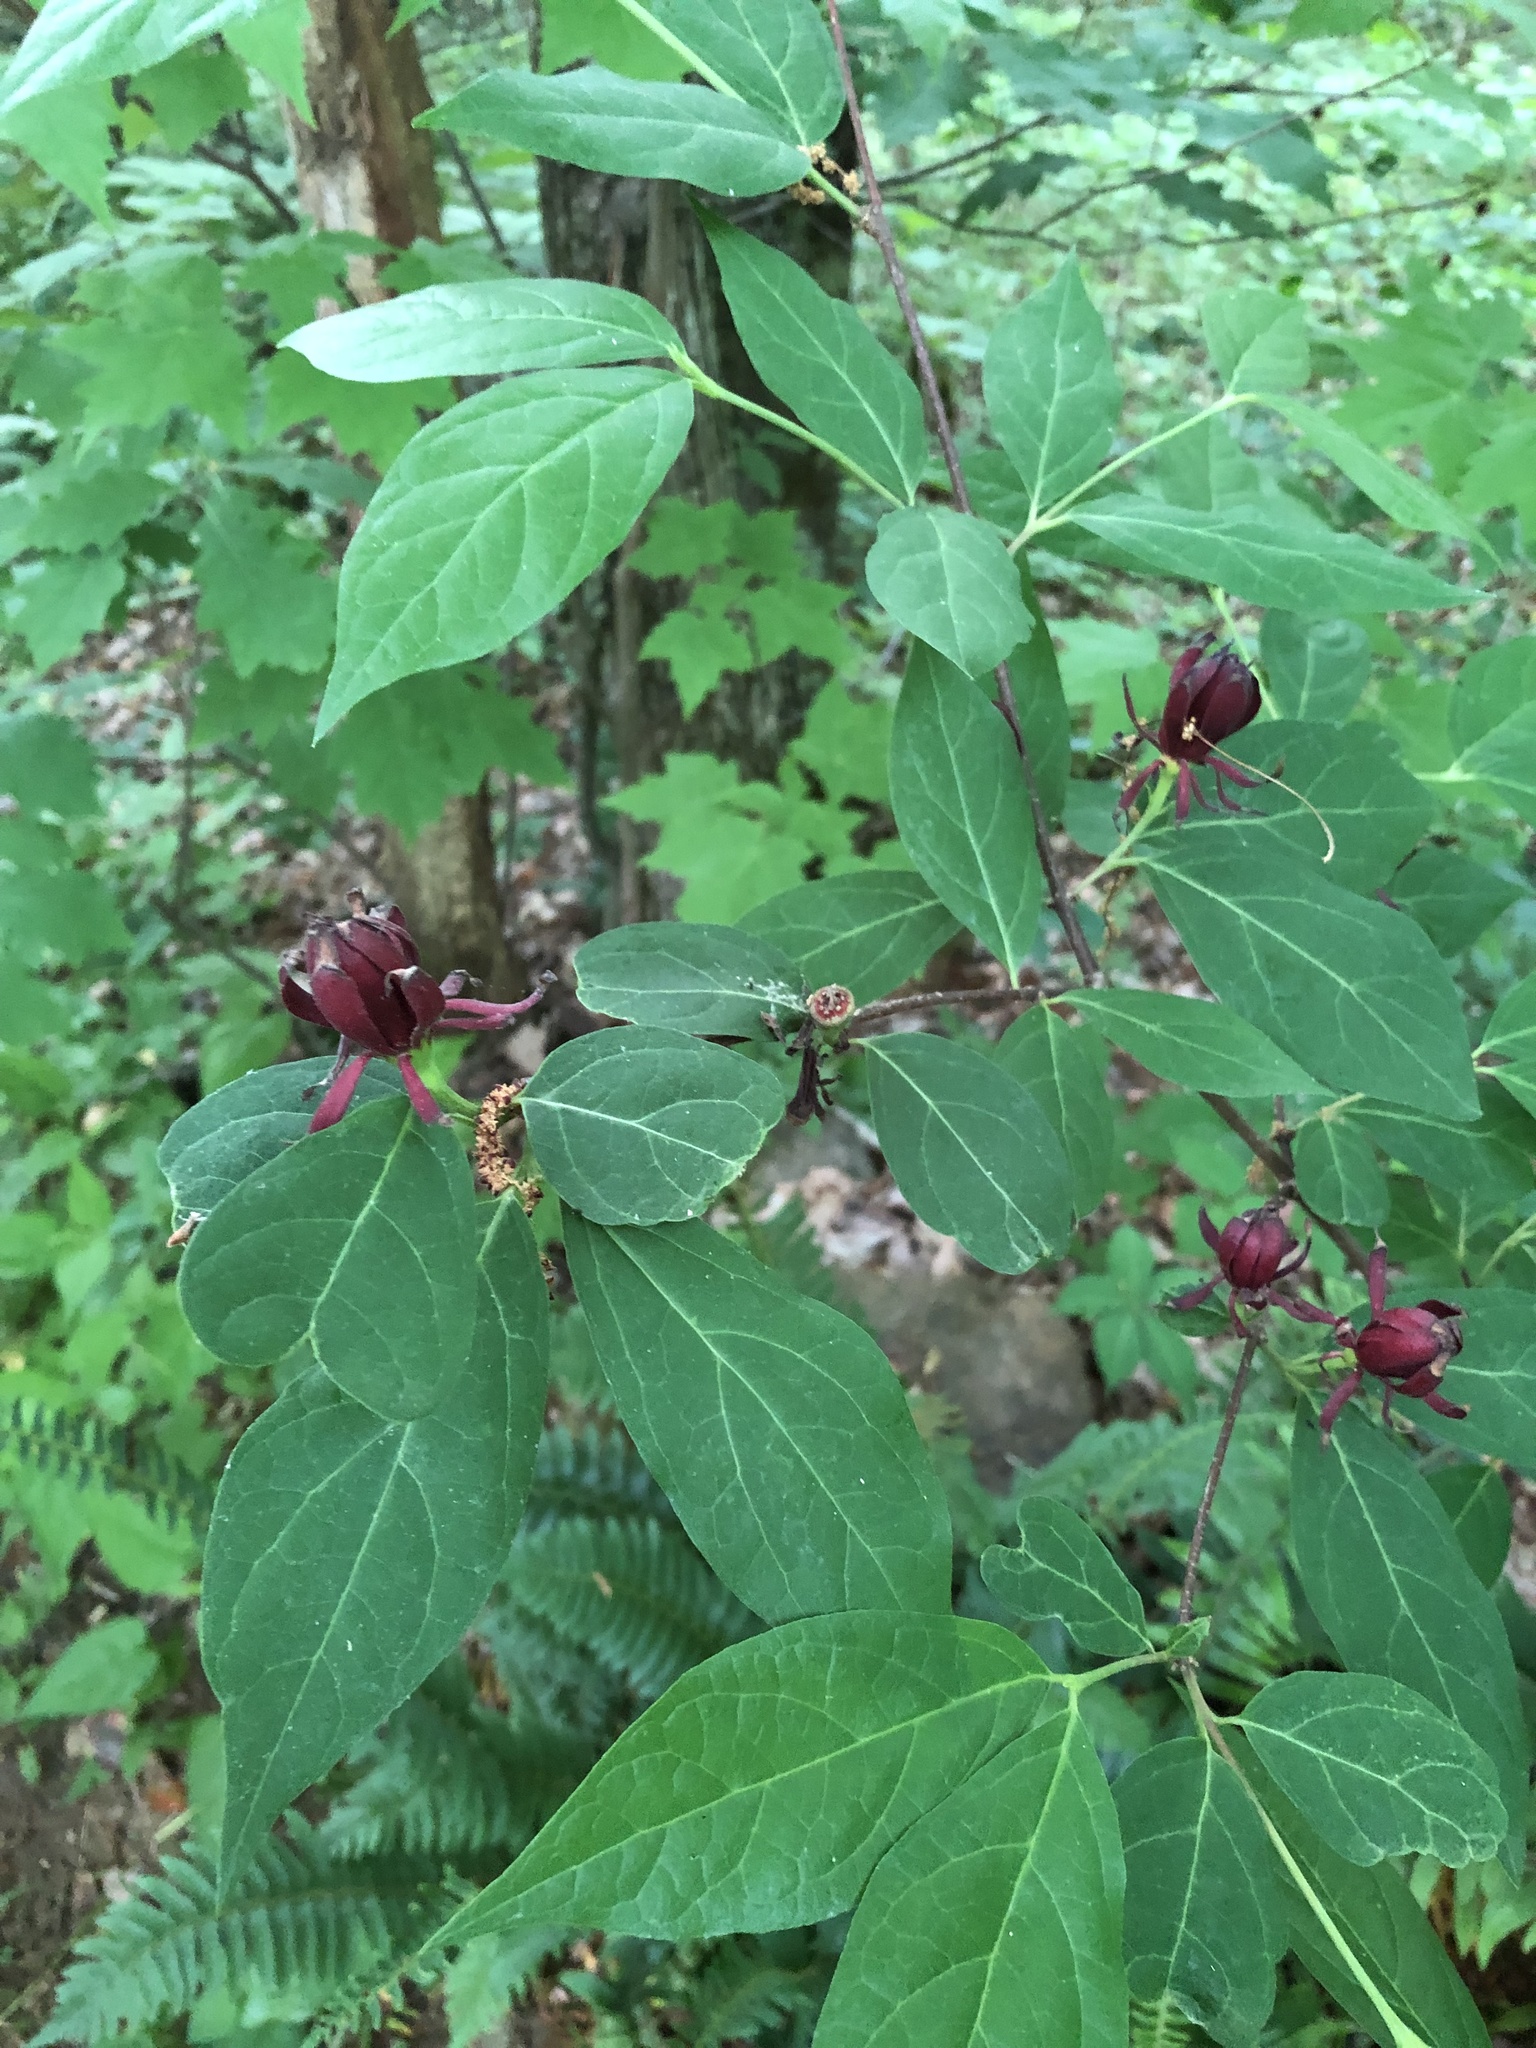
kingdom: Plantae
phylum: Tracheophyta
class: Magnoliopsida
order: Laurales
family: Calycanthaceae
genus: Calycanthus
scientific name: Calycanthus floridus
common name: Carolina-allspice
